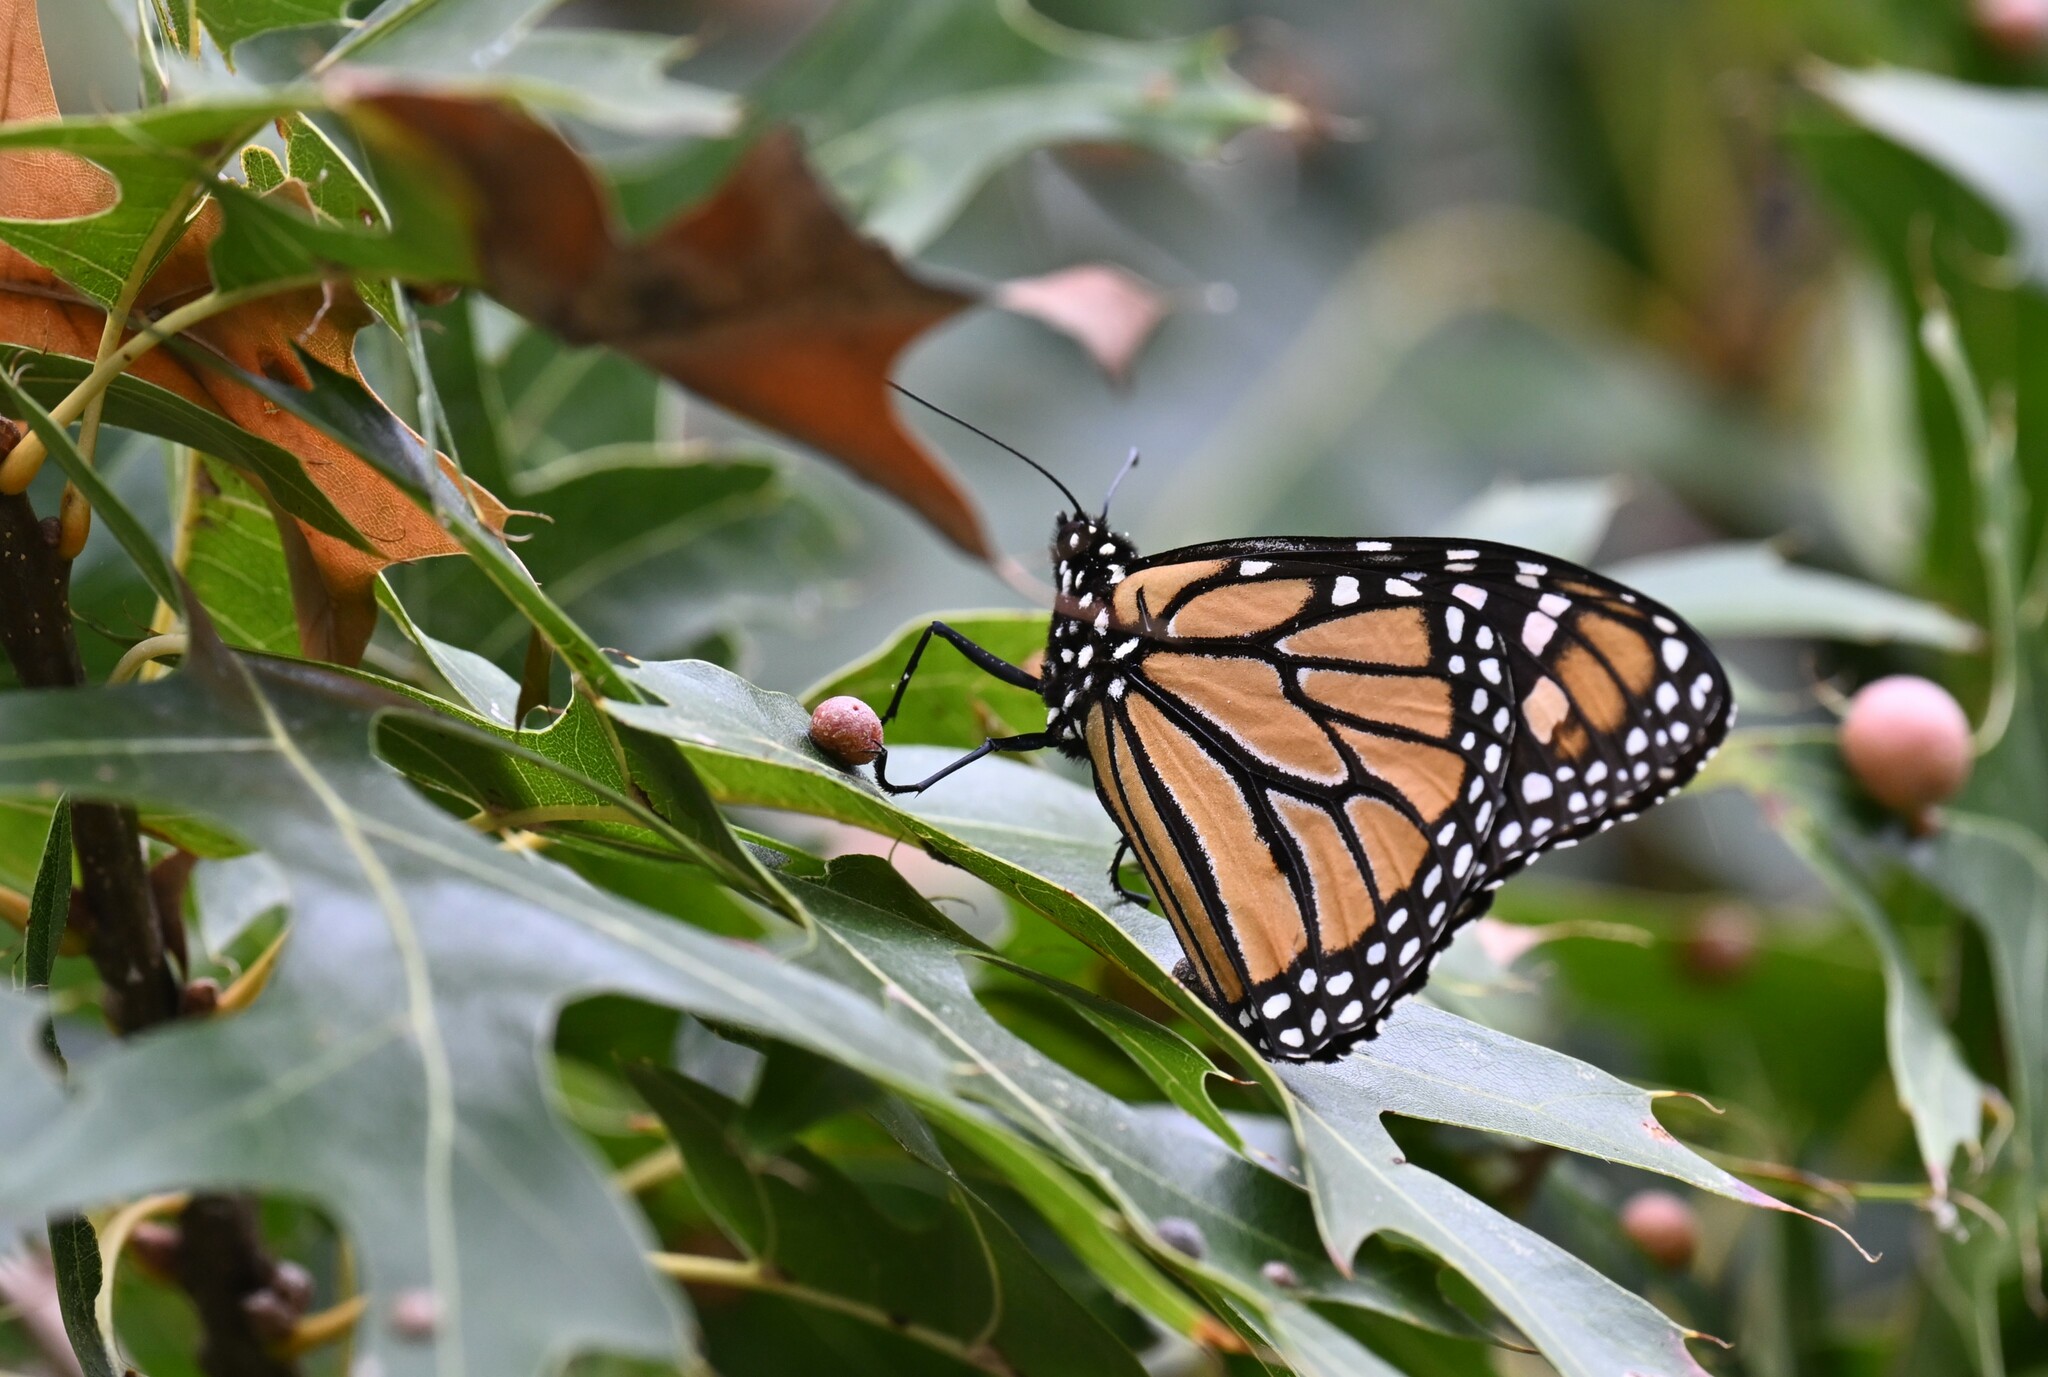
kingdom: Animalia
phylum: Arthropoda
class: Insecta
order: Lepidoptera
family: Nymphalidae
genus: Danaus
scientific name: Danaus plexippus
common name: Monarch
